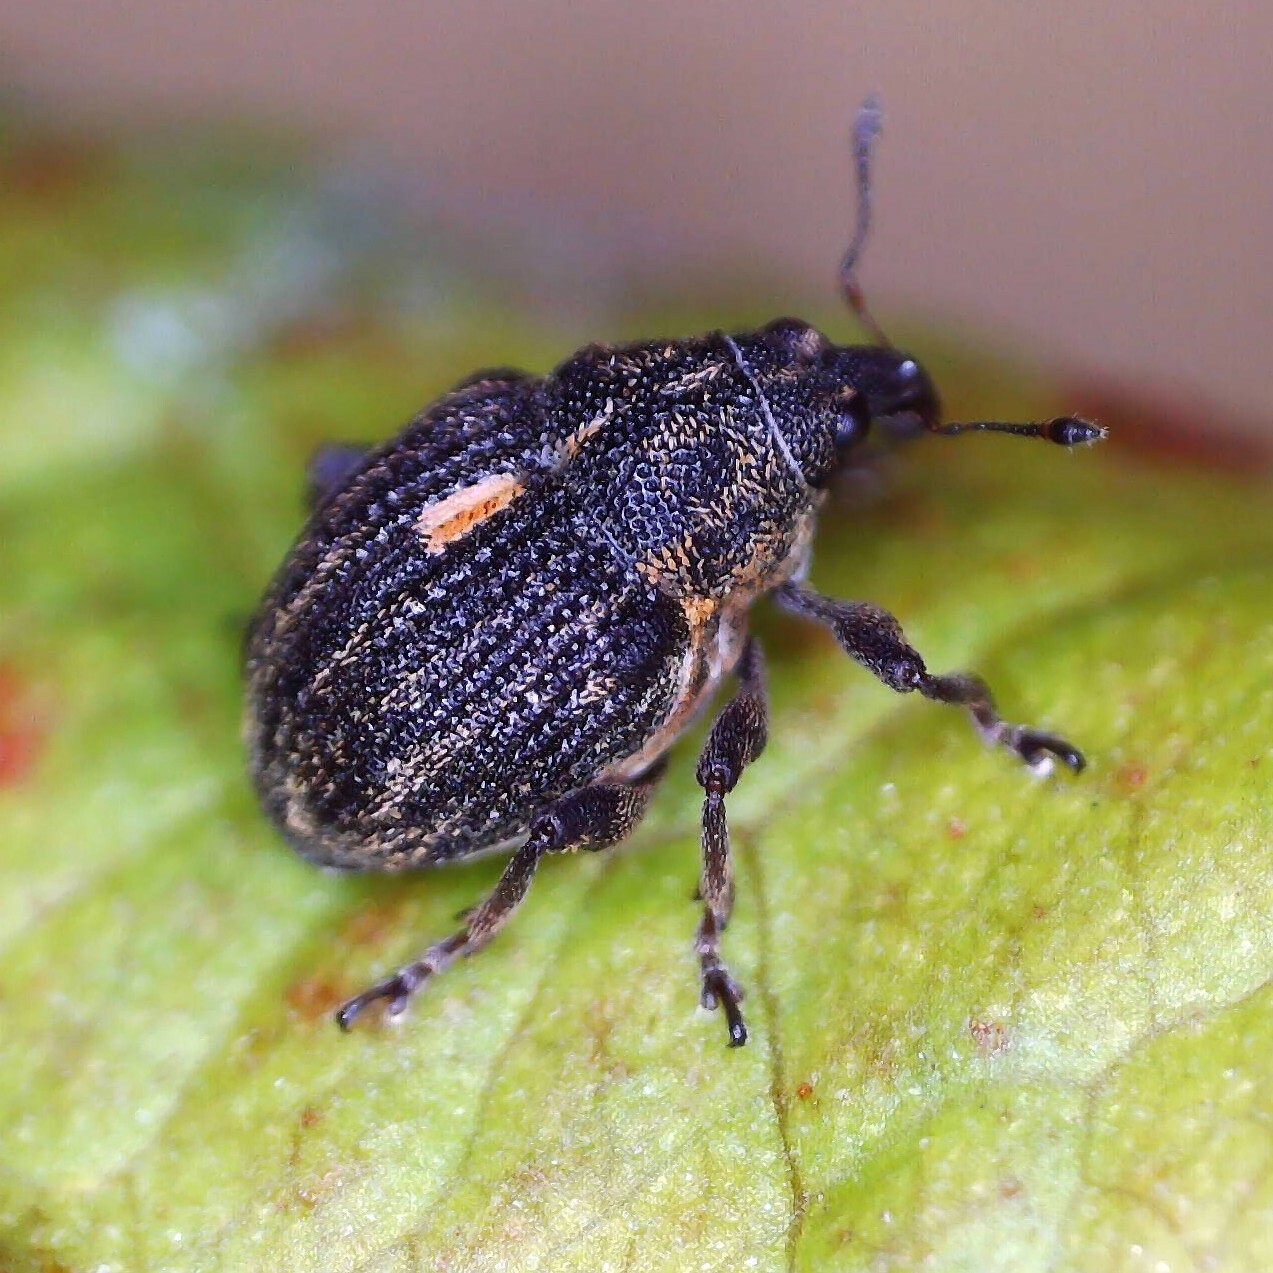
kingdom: Animalia
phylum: Arthropoda
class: Insecta
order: Coleoptera
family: Curculionidae
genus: Rhinoncus
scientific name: Rhinoncus leucostigma
